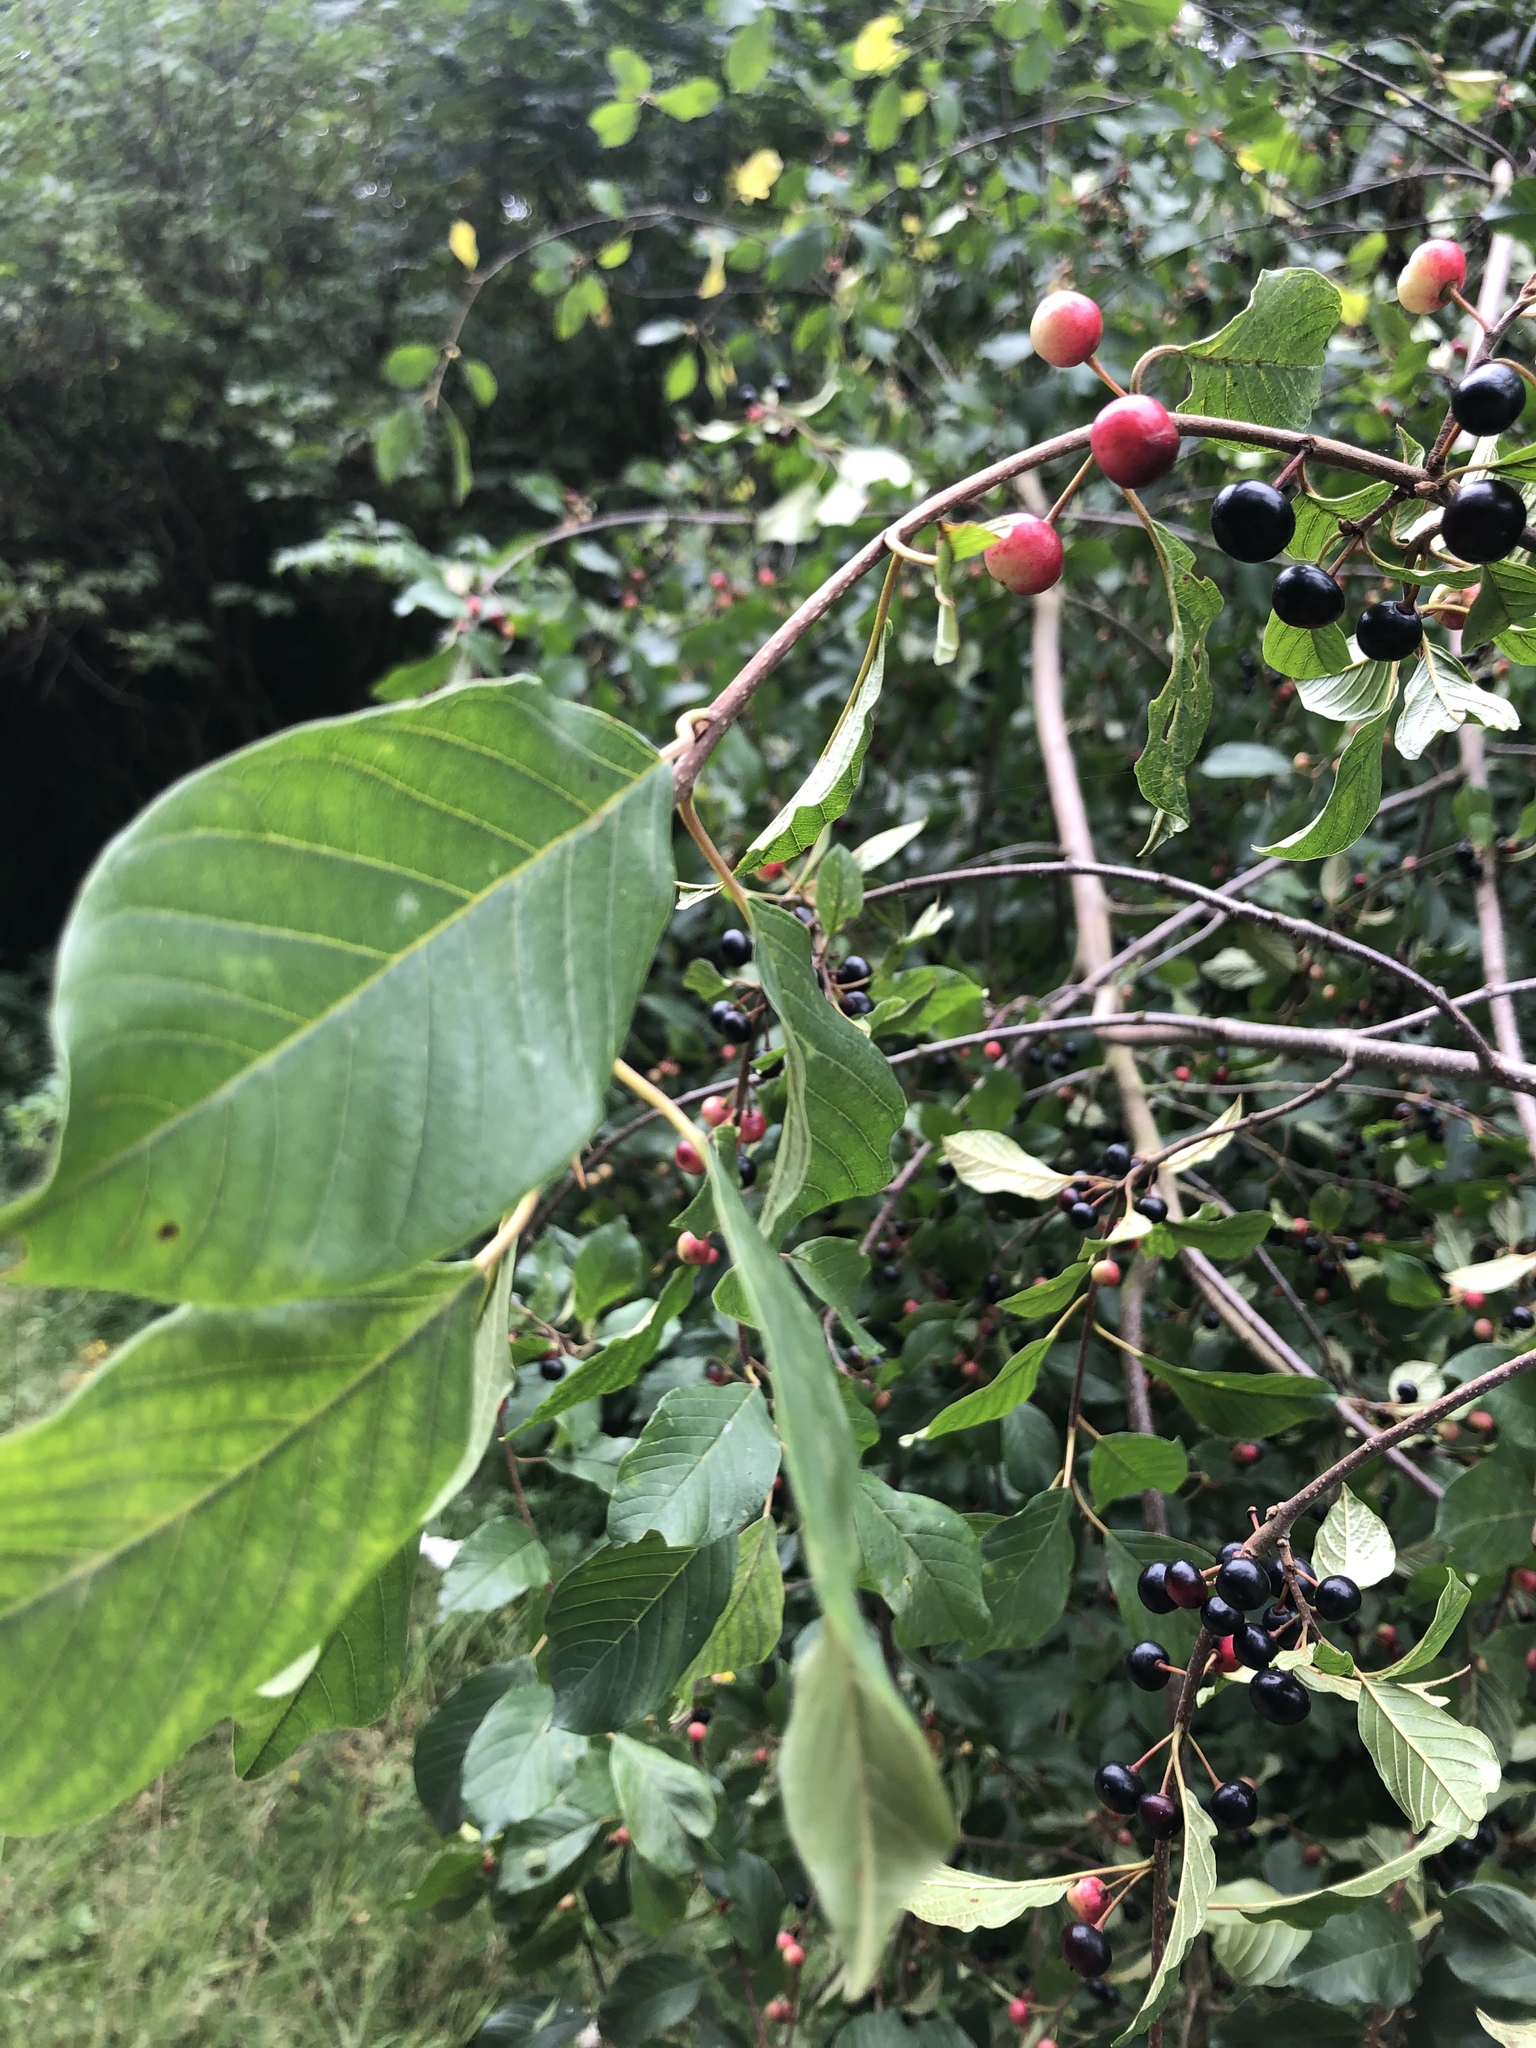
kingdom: Plantae
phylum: Tracheophyta
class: Magnoliopsida
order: Rosales
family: Rhamnaceae
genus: Frangula
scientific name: Frangula alnus
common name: Alder buckthorn
